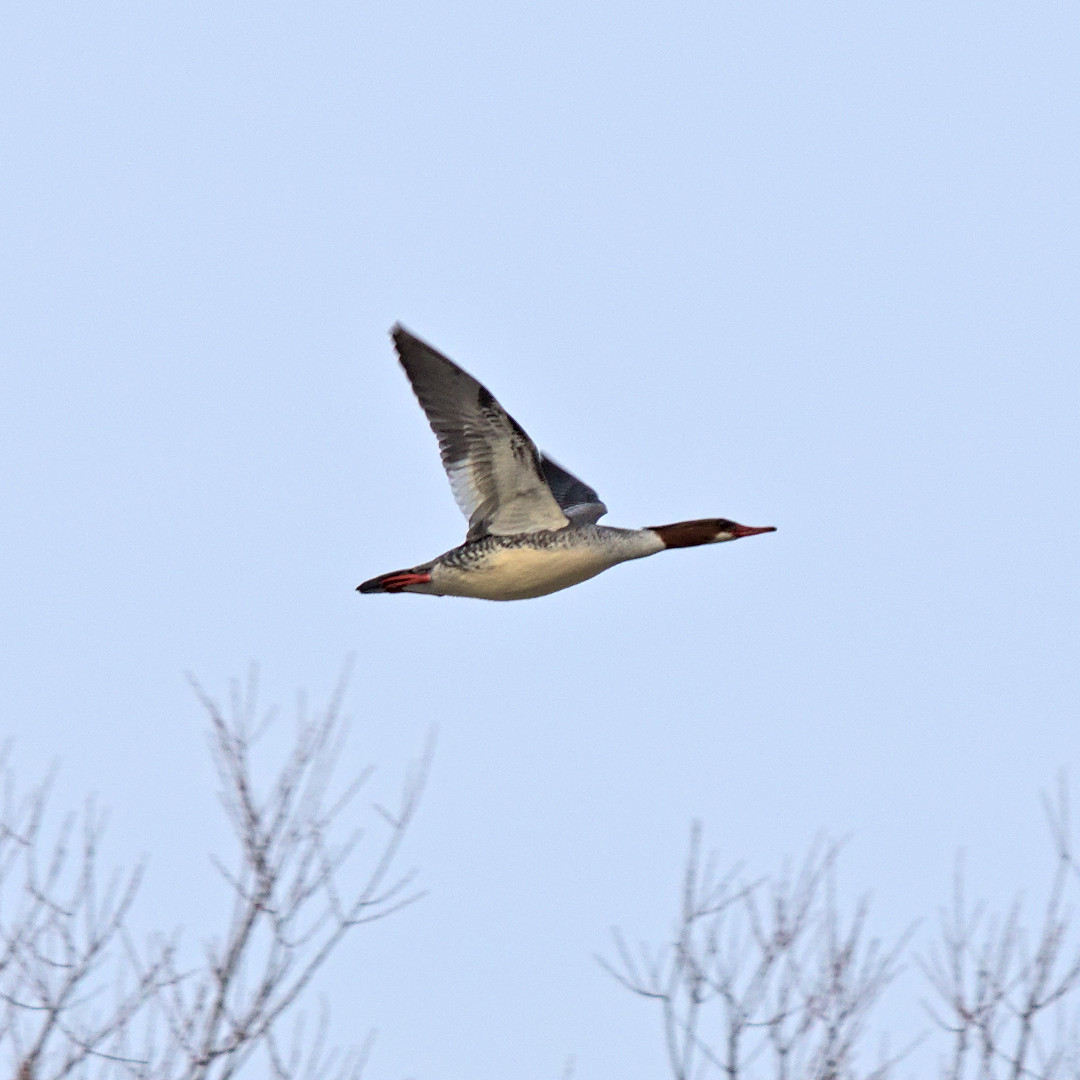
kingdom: Animalia
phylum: Chordata
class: Aves
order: Anseriformes
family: Anatidae
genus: Mergus
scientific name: Mergus merganser
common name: Common merganser
